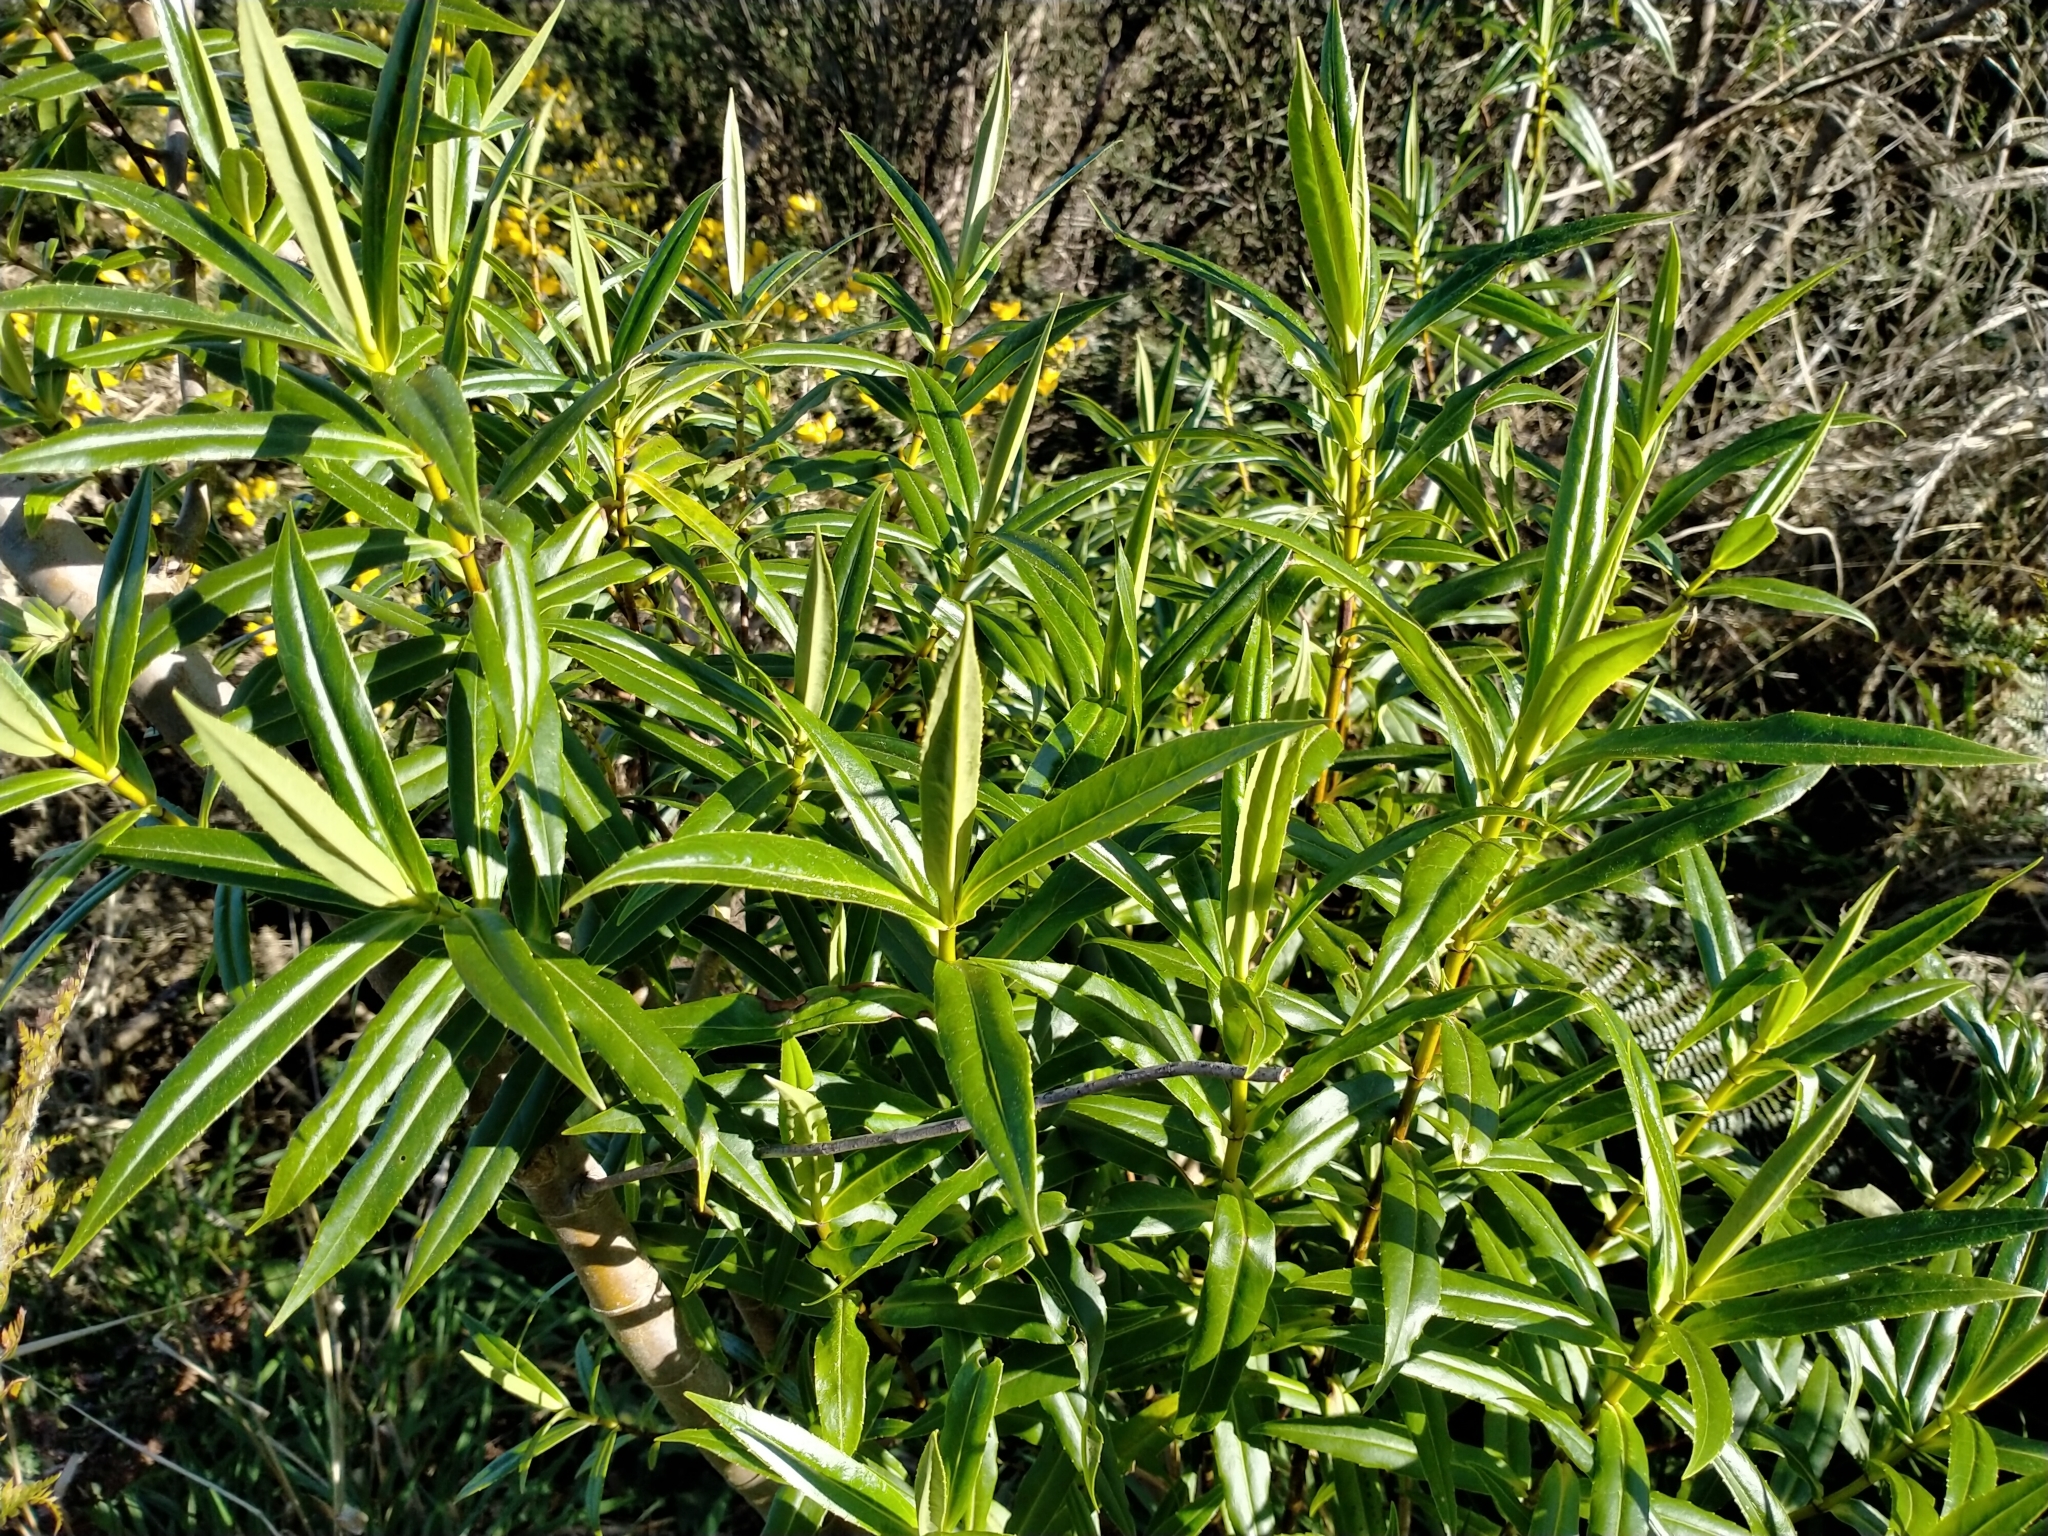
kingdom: Plantae
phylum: Tracheophyta
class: Magnoliopsida
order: Lamiales
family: Plantaginaceae
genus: Veronica
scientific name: Veronica salicifolia
